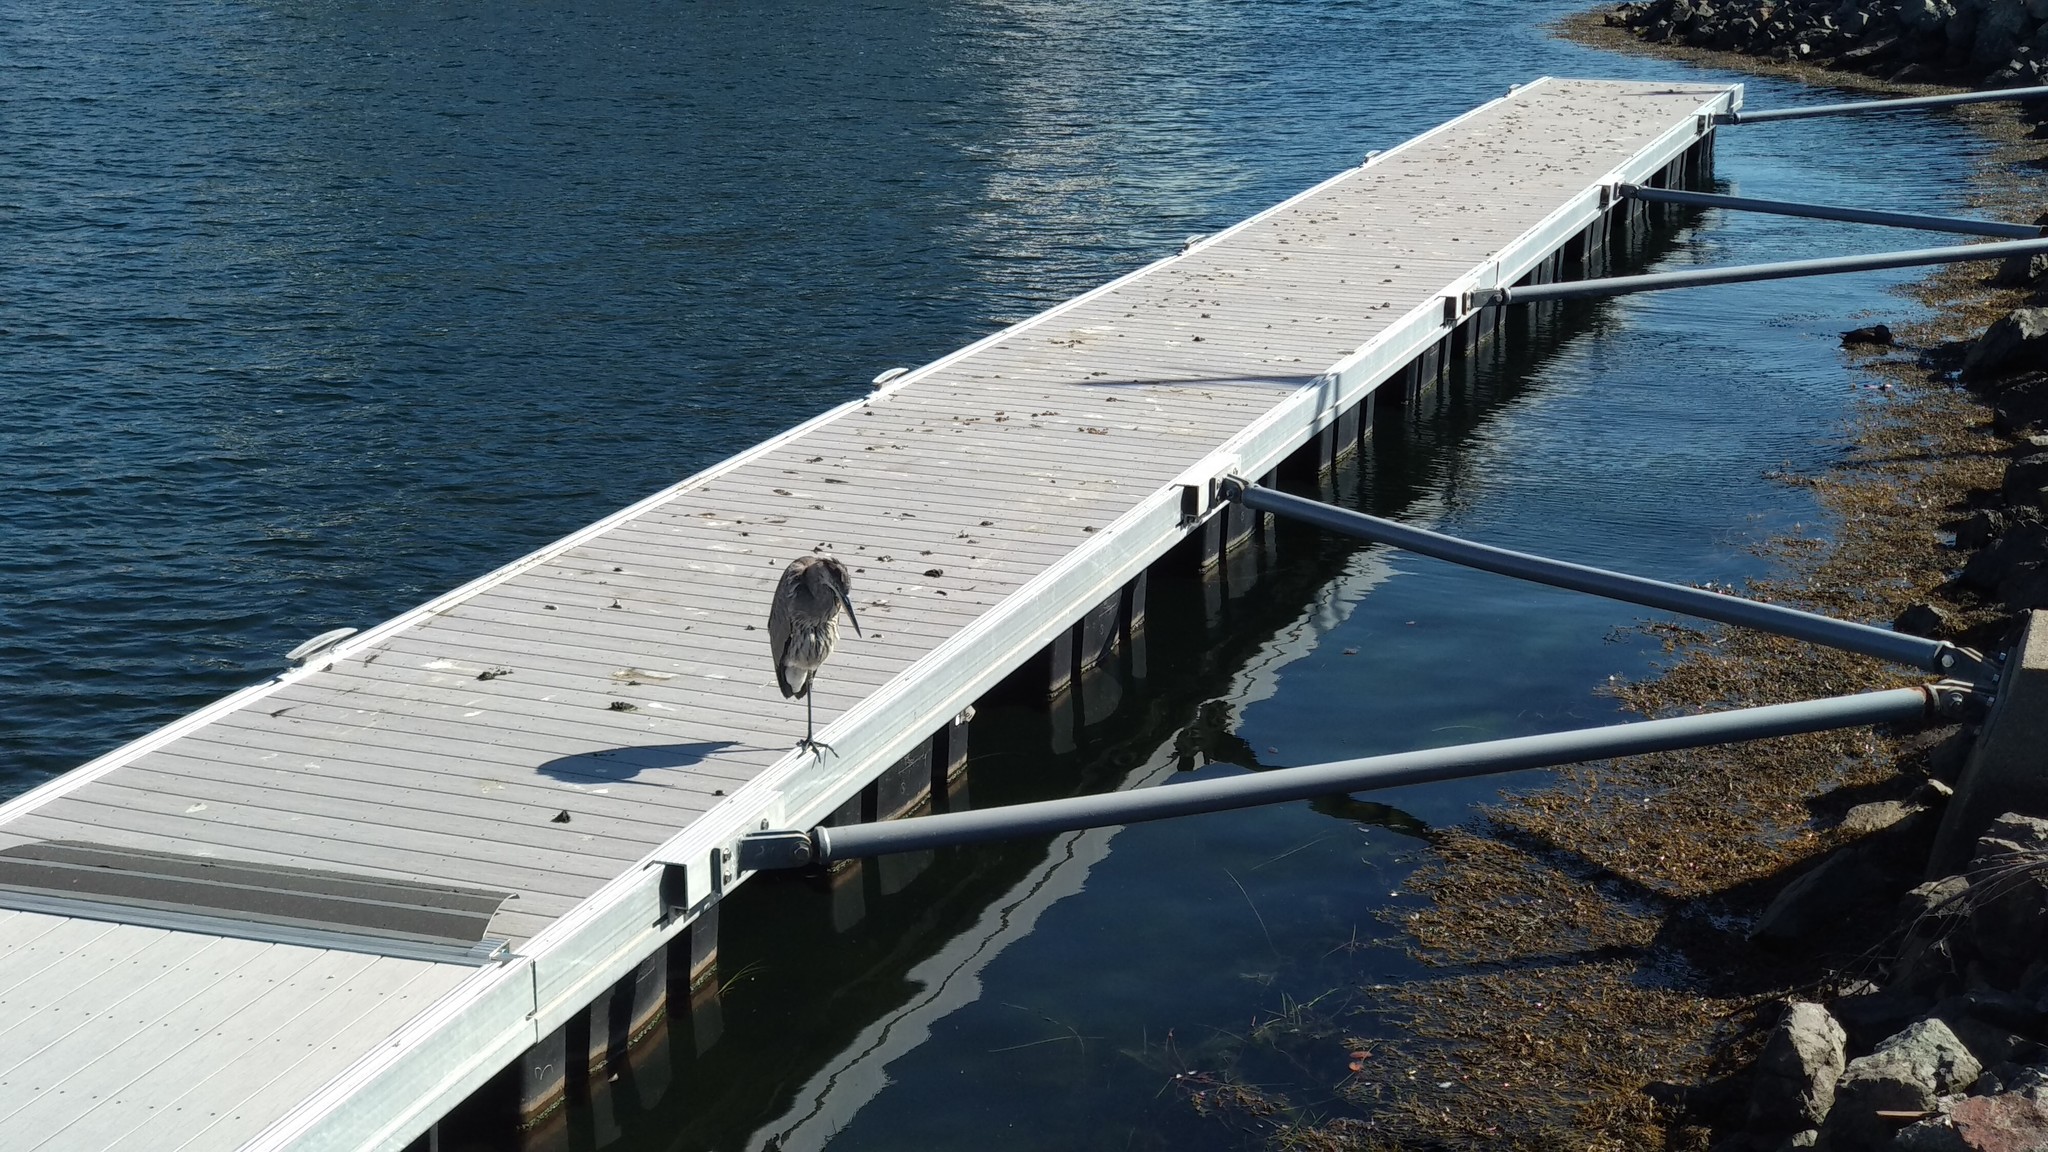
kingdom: Animalia
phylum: Chordata
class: Aves
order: Pelecaniformes
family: Ardeidae
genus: Ardea
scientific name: Ardea herodias
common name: Great blue heron
